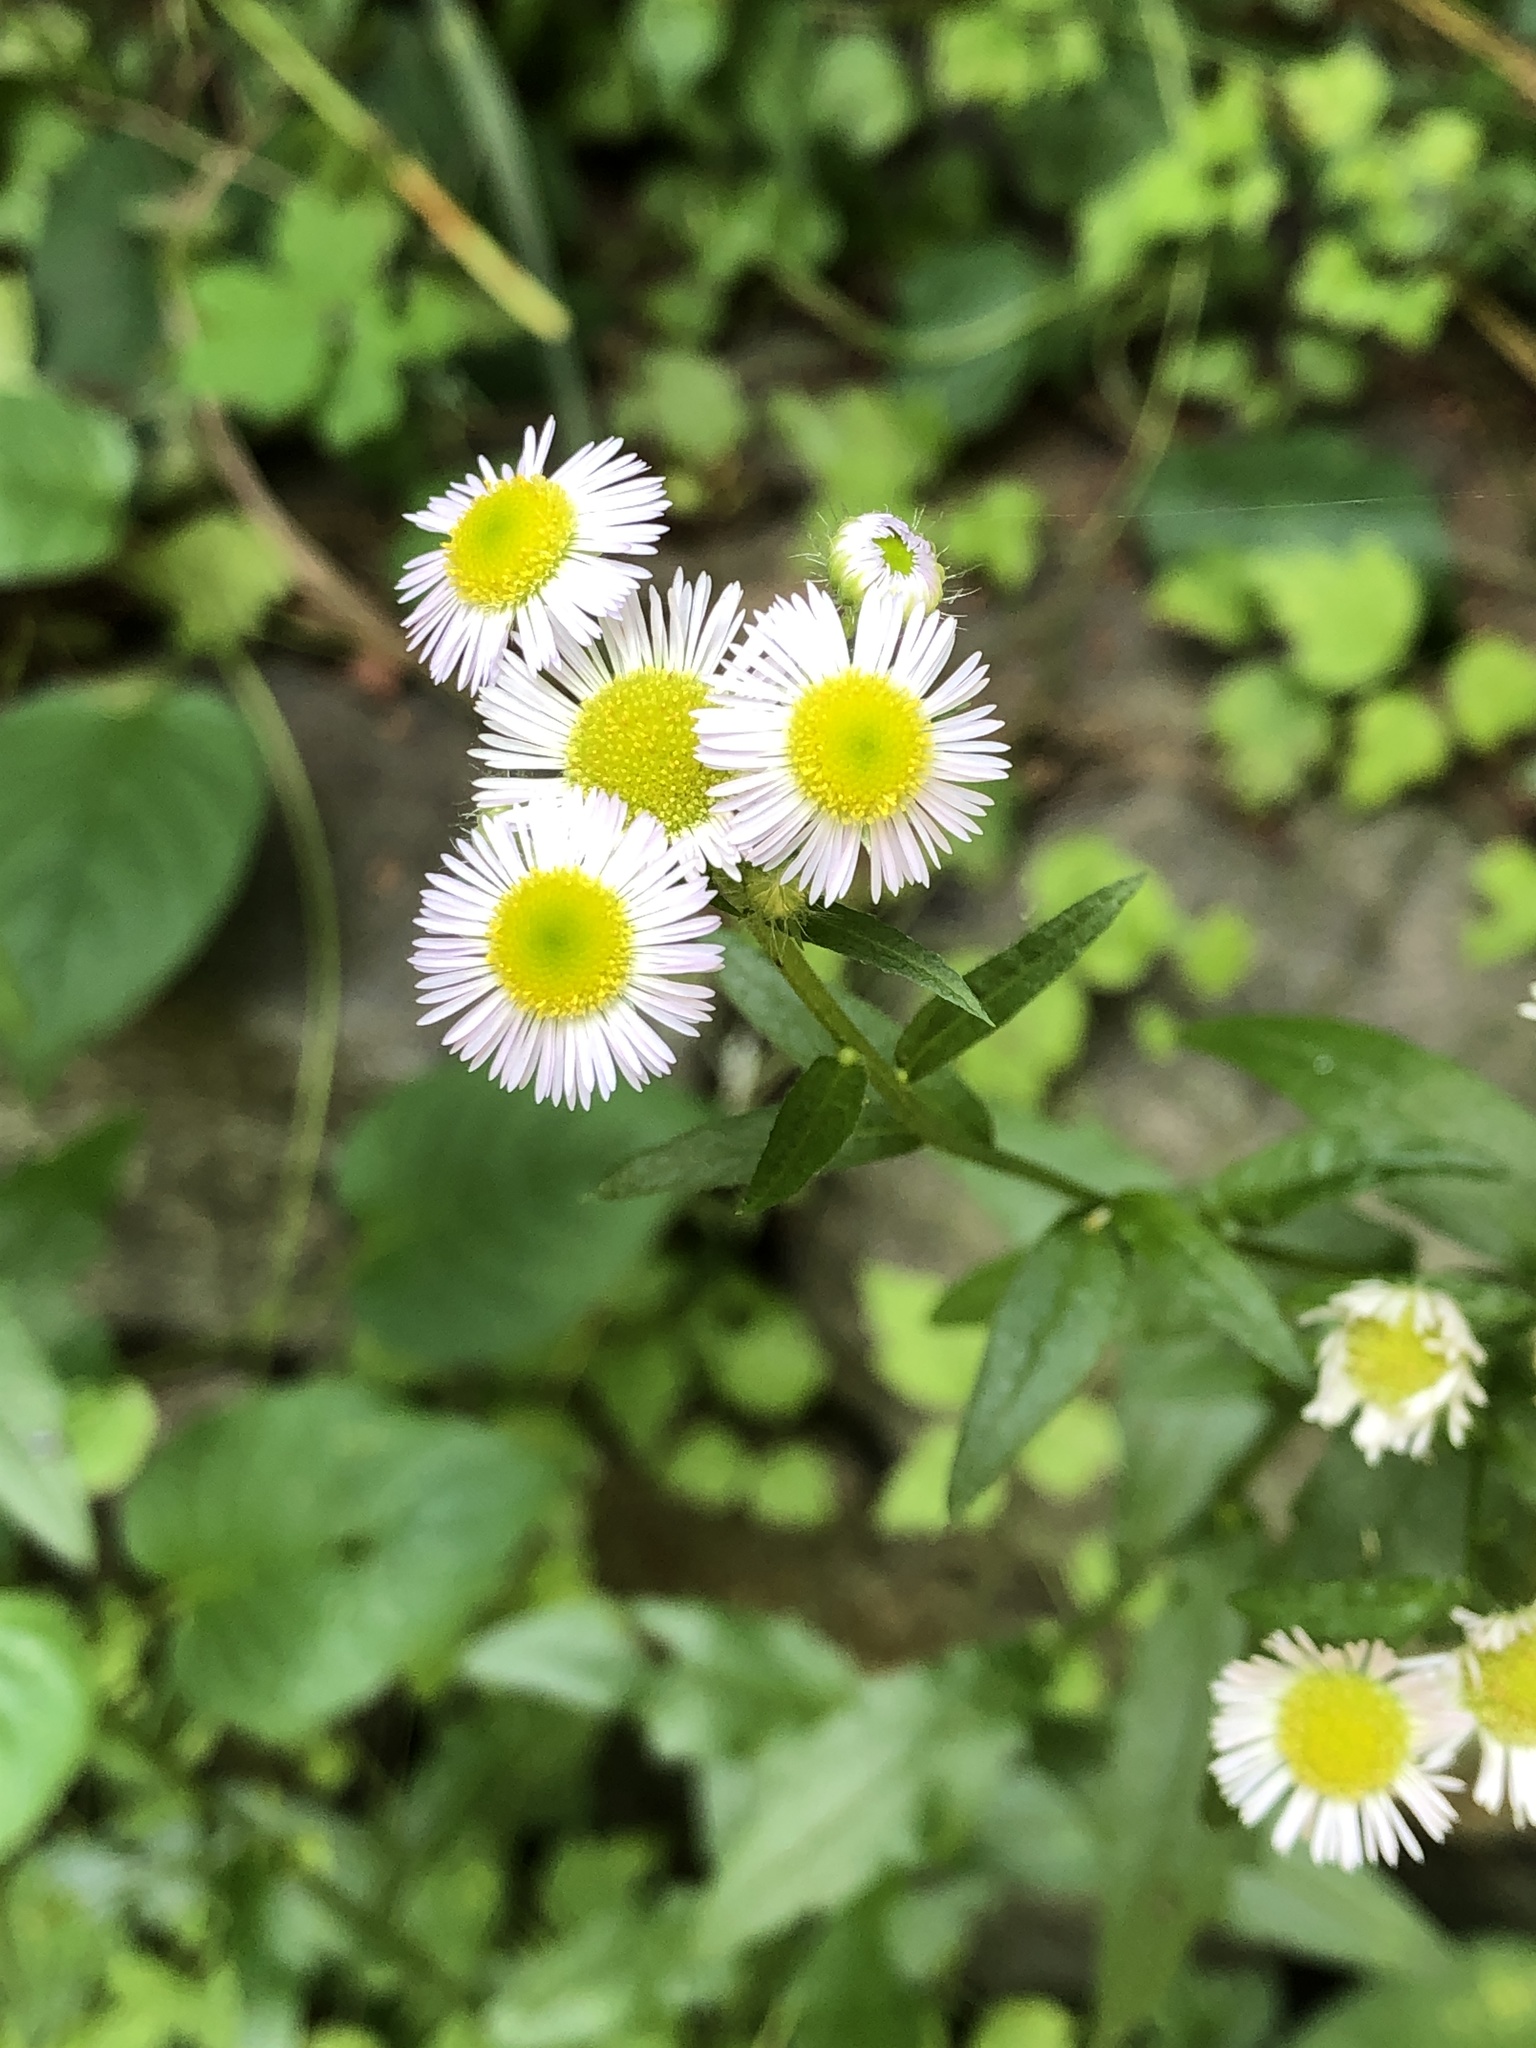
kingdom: Plantae
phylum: Tracheophyta
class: Magnoliopsida
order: Asterales
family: Asteraceae
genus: Erigeron
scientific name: Erigeron annuus
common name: Tall fleabane
